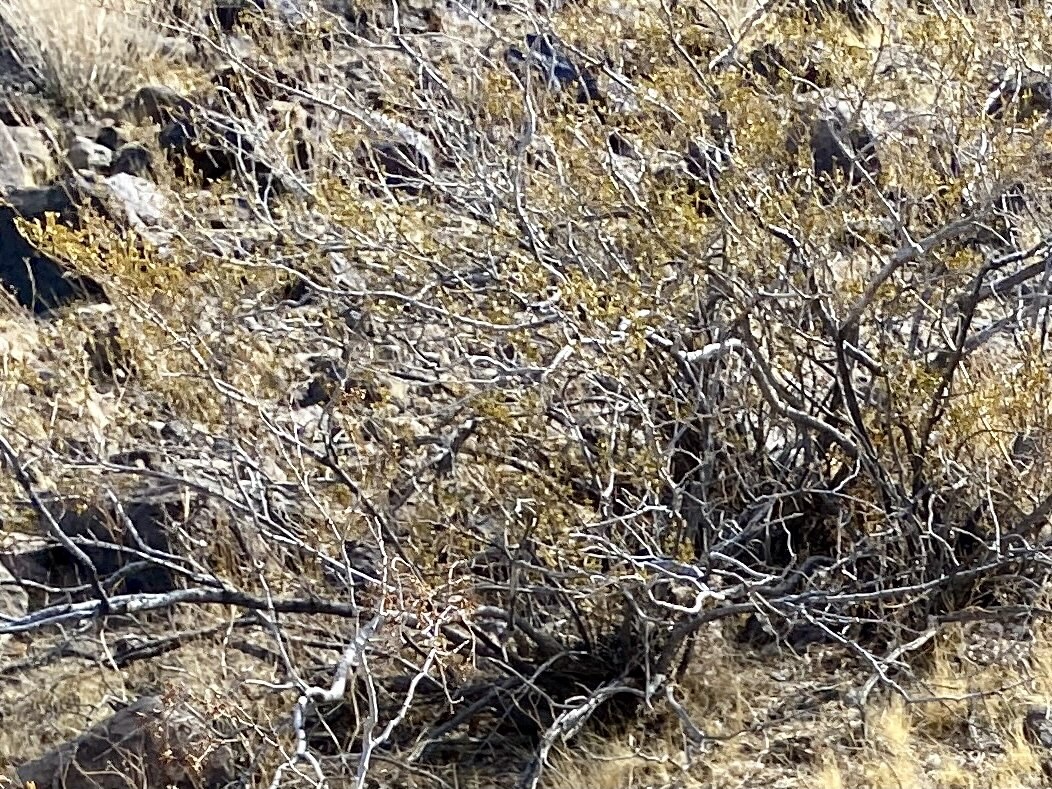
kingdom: Plantae
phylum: Tracheophyta
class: Magnoliopsida
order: Zygophyllales
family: Zygophyllaceae
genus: Larrea
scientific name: Larrea tridentata
